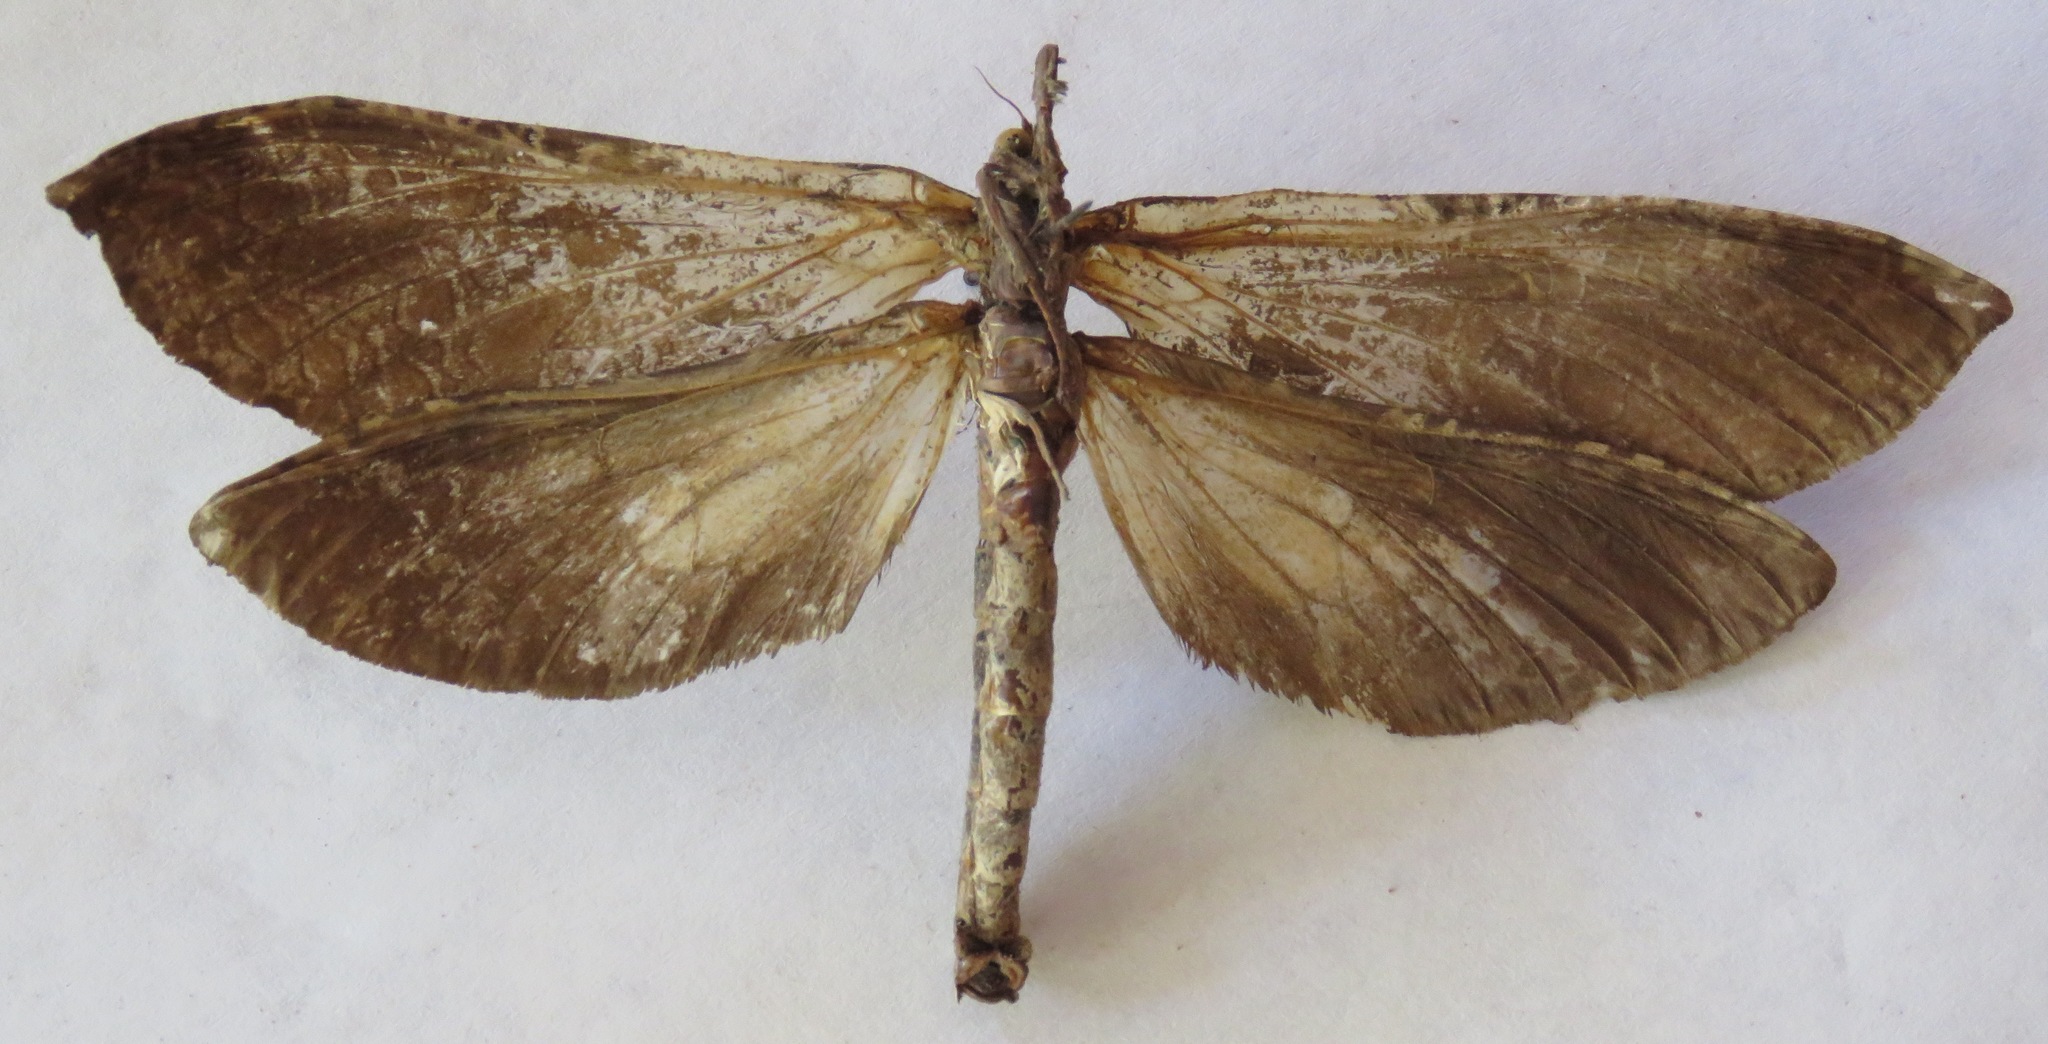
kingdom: Animalia
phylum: Arthropoda
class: Insecta
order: Lepidoptera
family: Hepialidae
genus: Phassus
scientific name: Phassus huebneri
